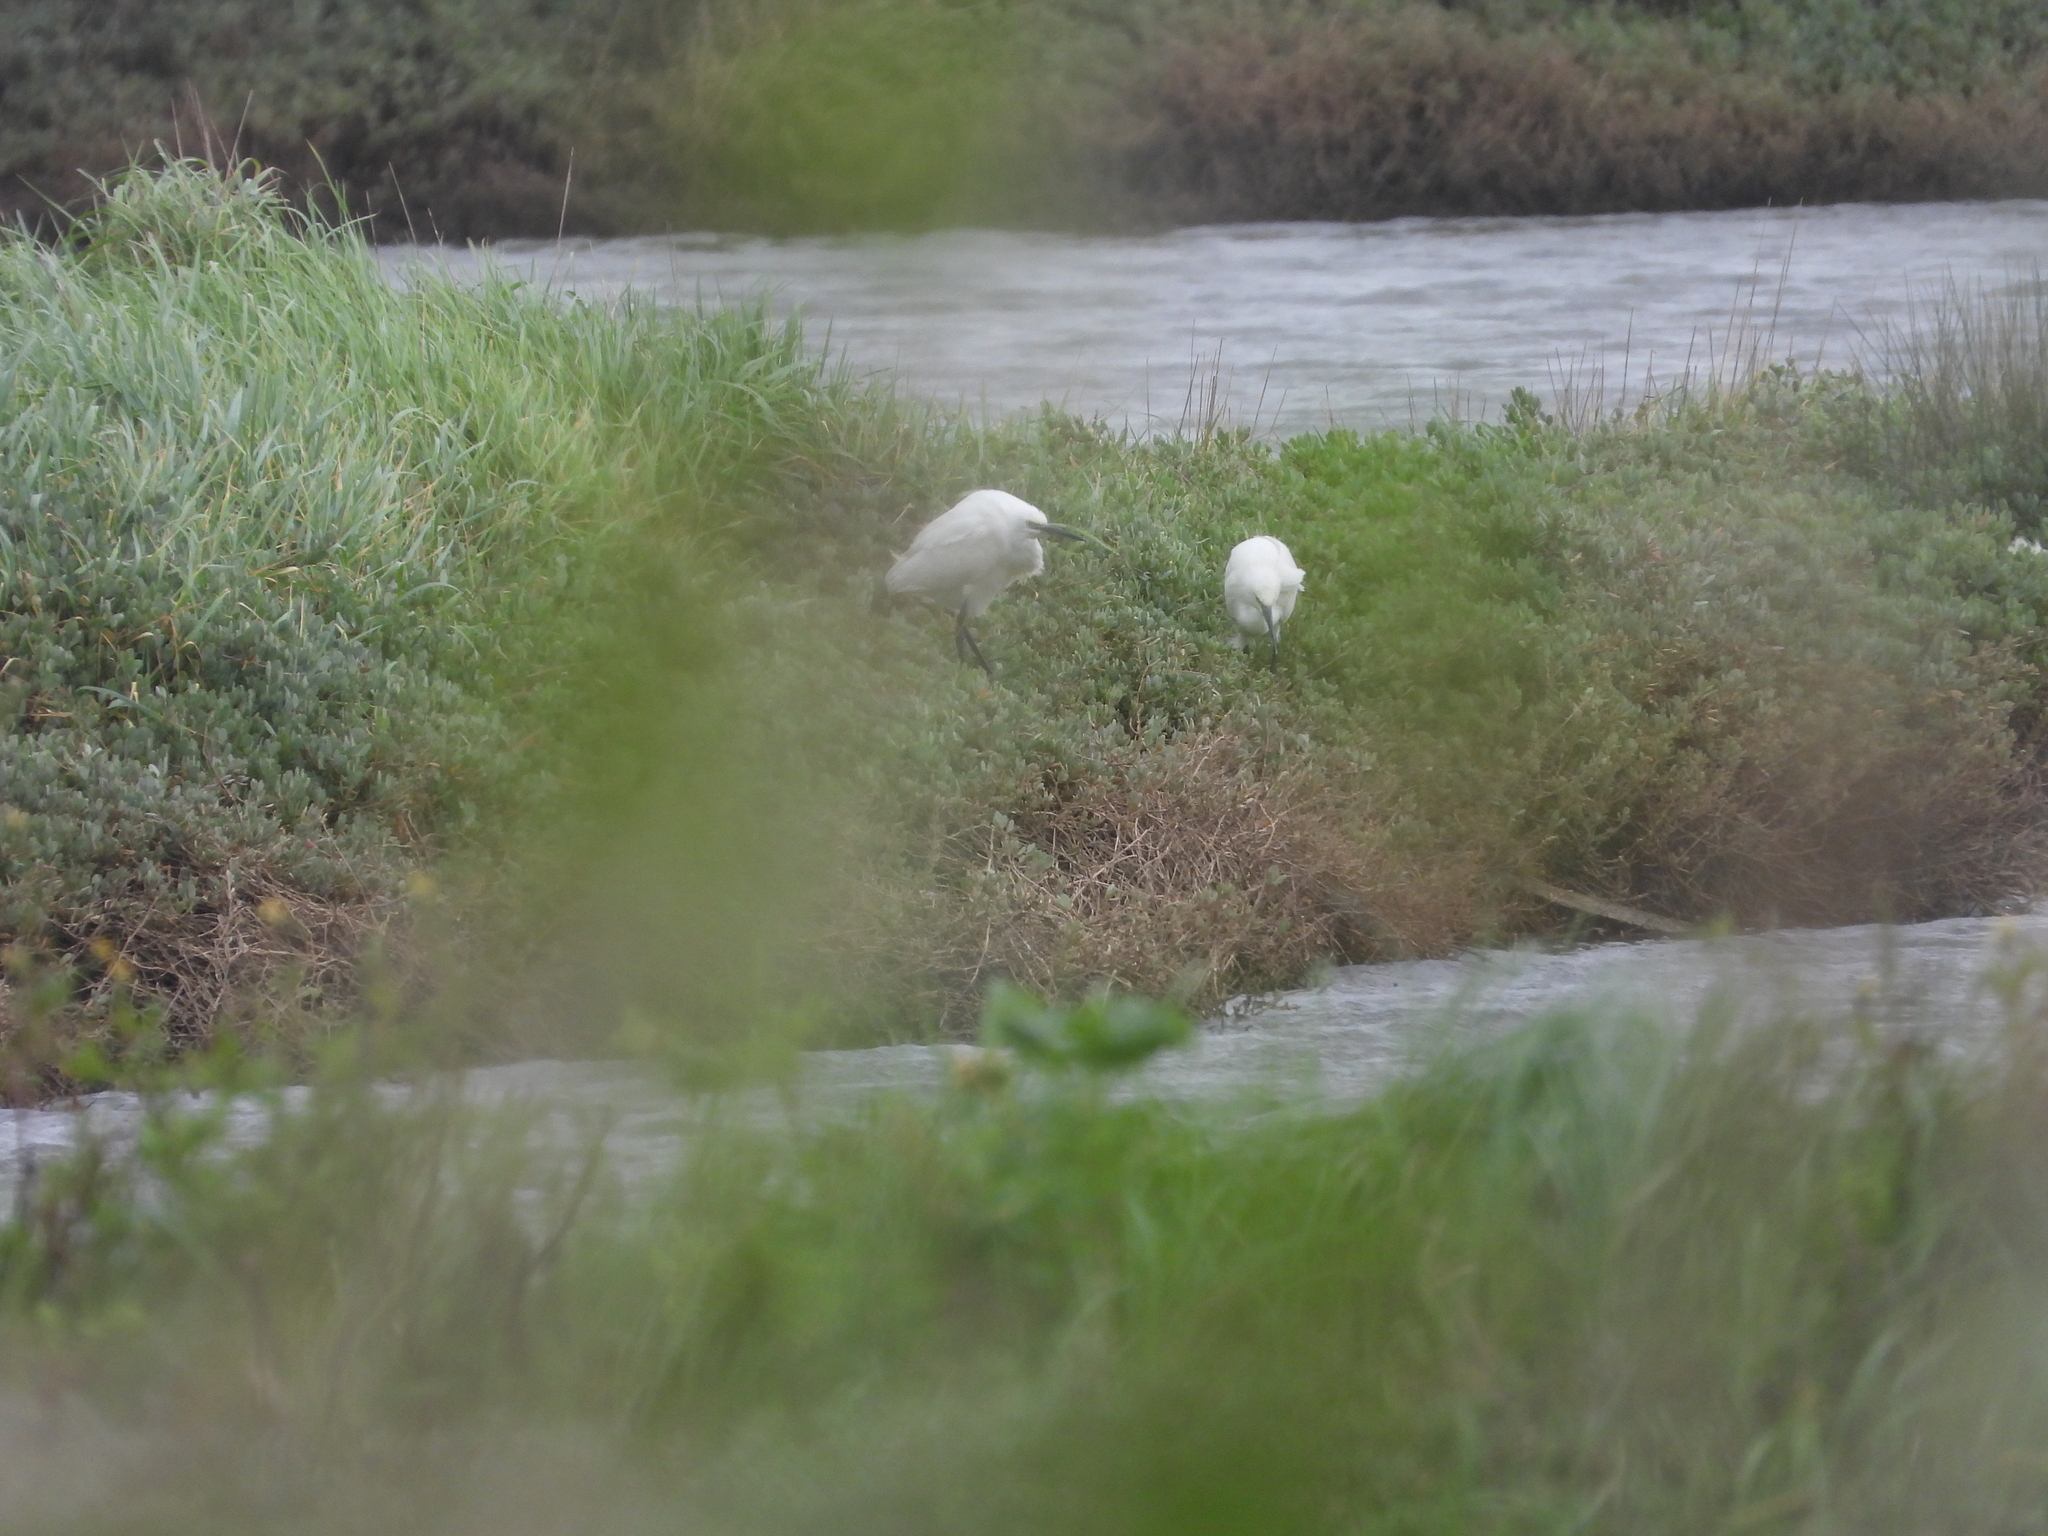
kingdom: Animalia
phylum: Chordata
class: Aves
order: Pelecaniformes
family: Ardeidae
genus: Egretta
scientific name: Egretta garzetta
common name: Little egret
